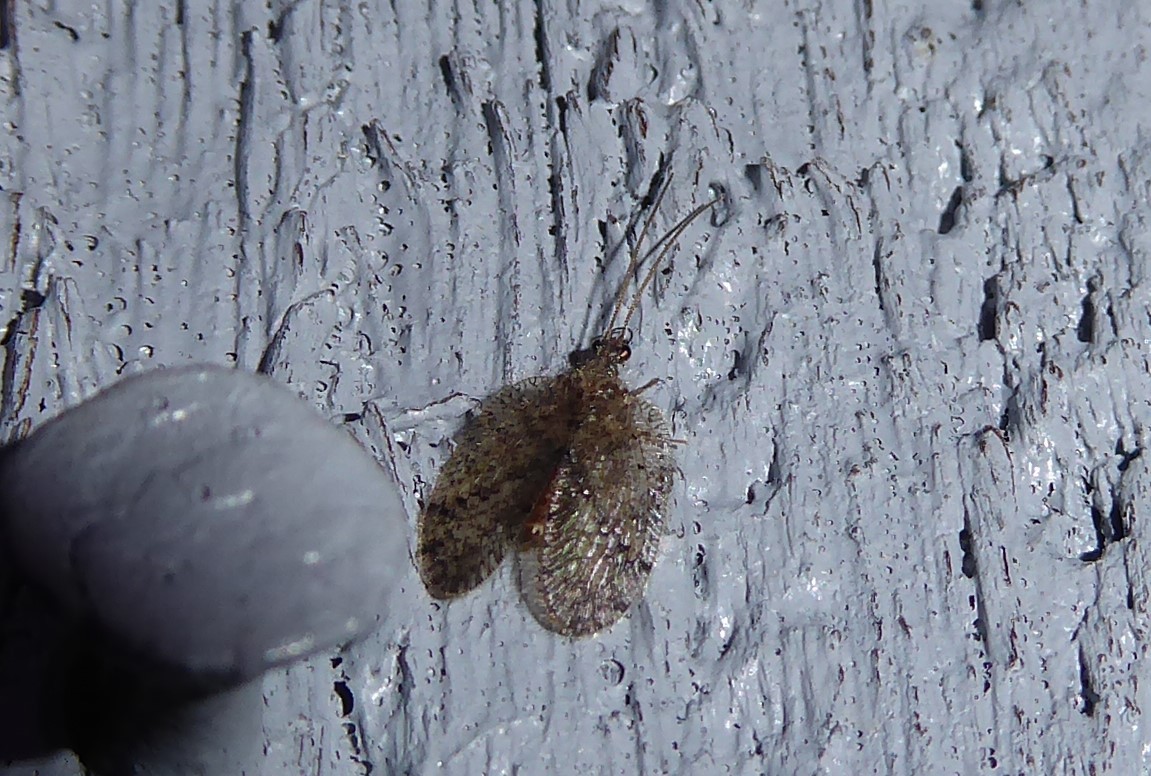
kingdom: Animalia
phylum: Arthropoda
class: Insecta
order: Neuroptera
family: Hemerobiidae
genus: Psectra
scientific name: Psectra nakaharai
